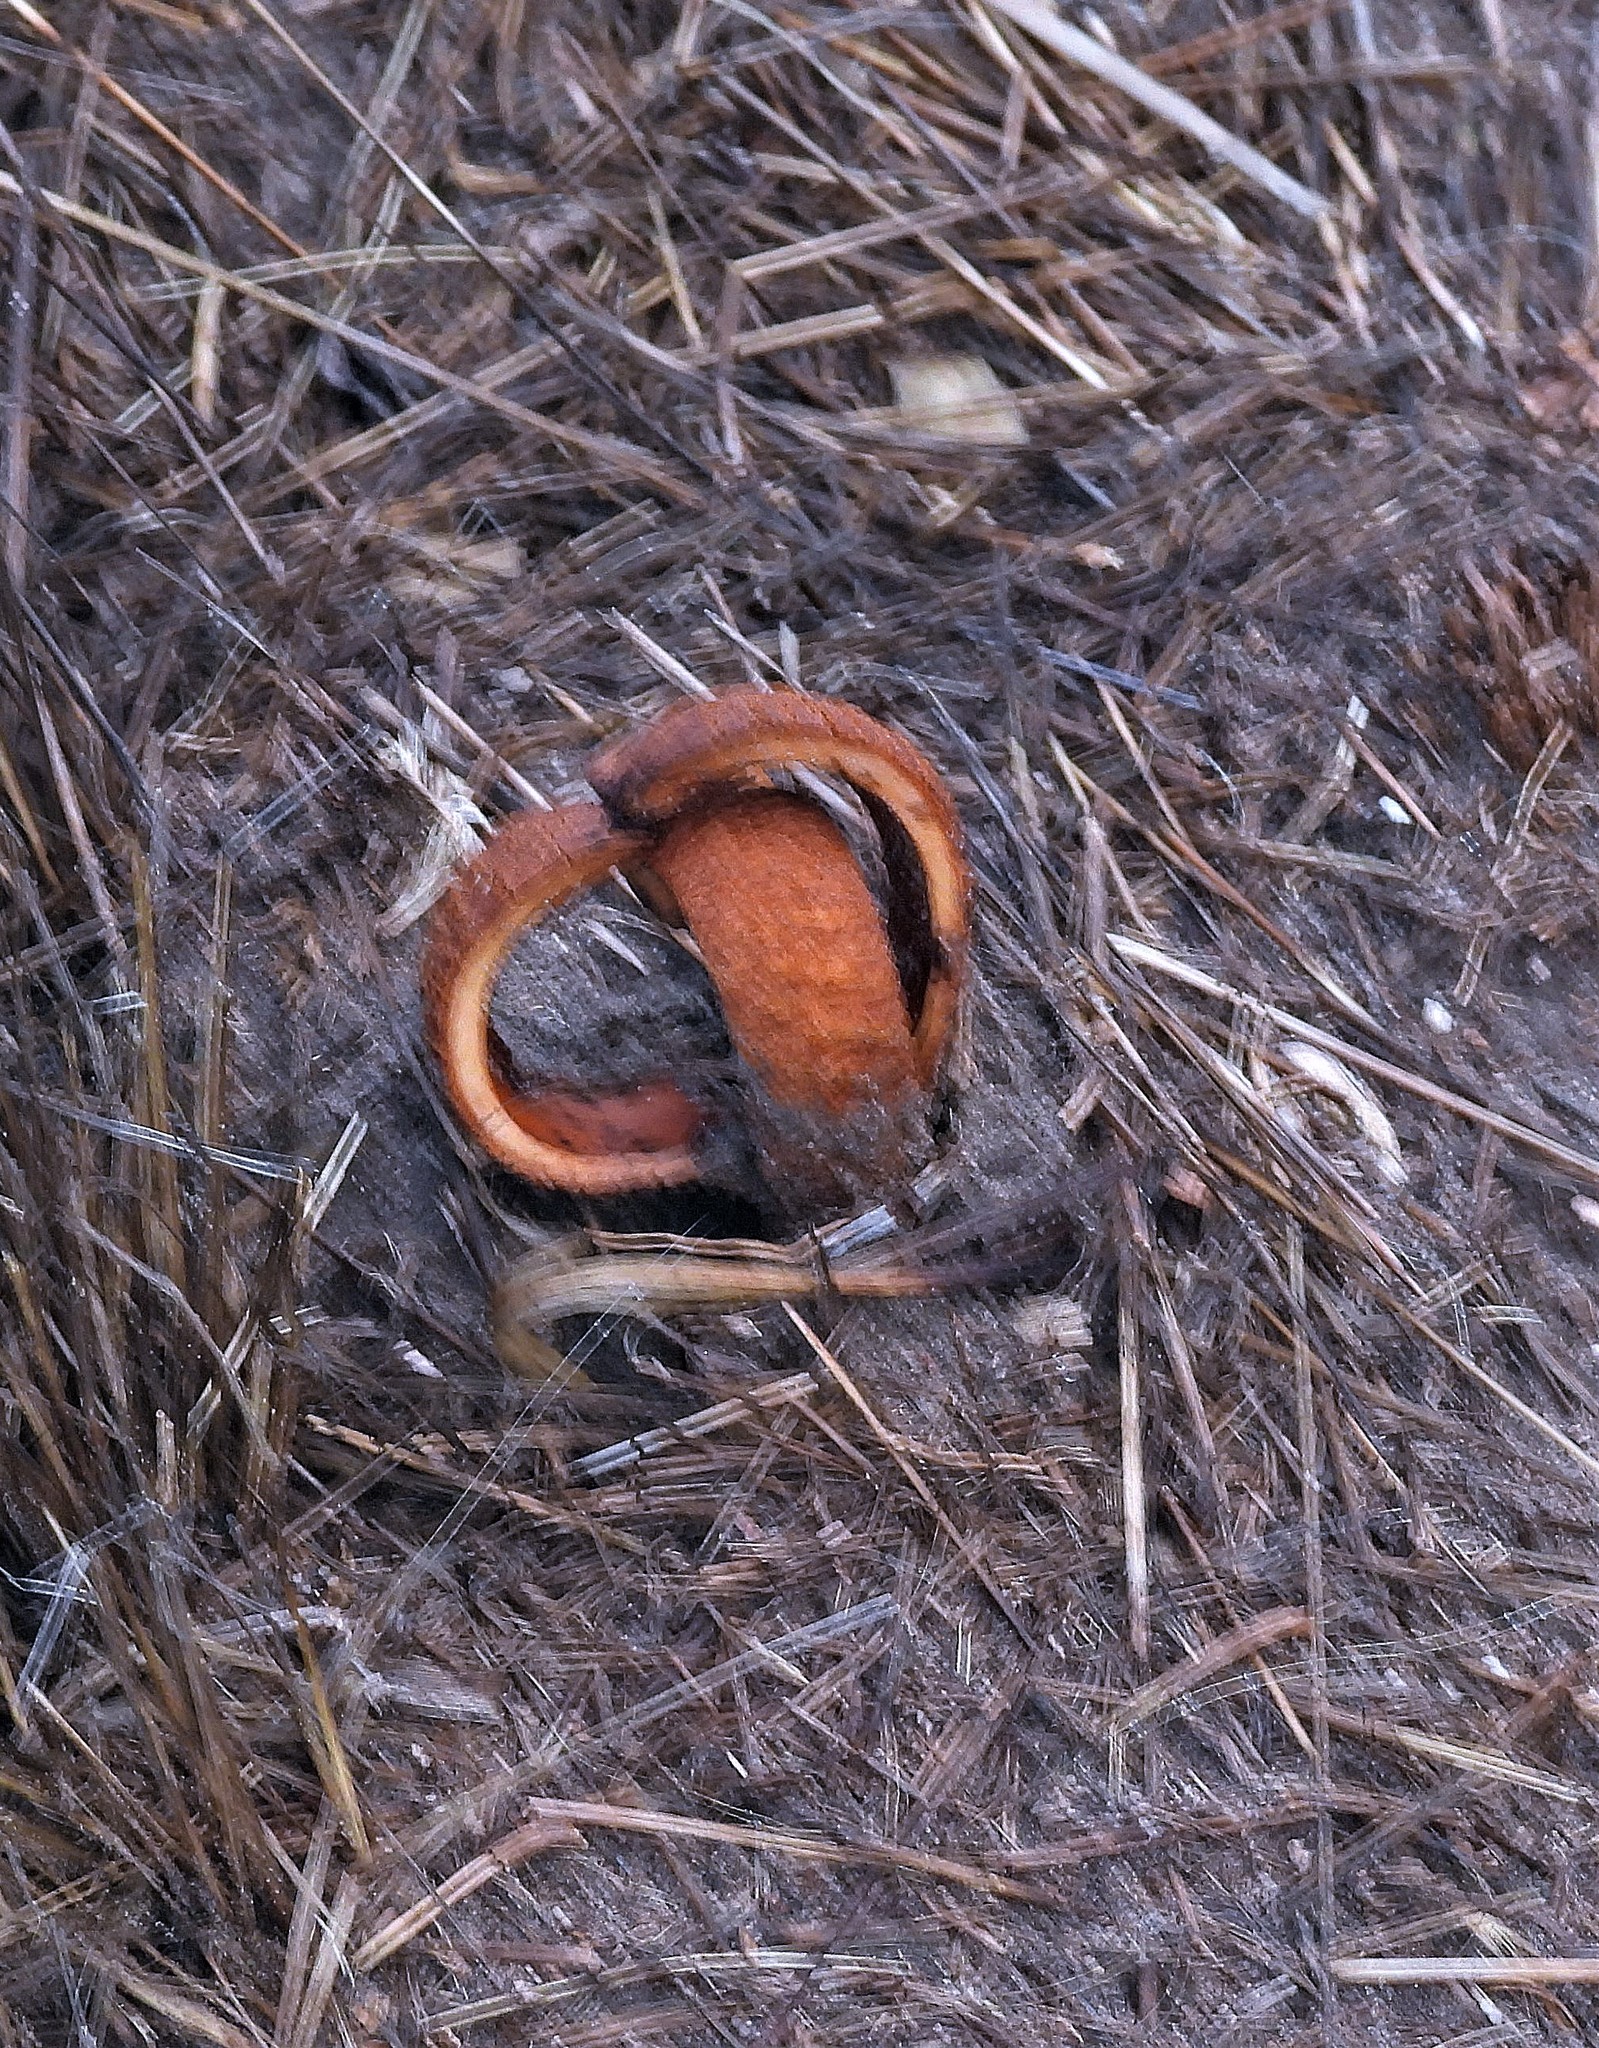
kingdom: Plantae
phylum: Tracheophyta
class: Magnoliopsida
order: Piperales
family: Hydnoraceae
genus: Prosopanche
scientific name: Prosopanche americana
